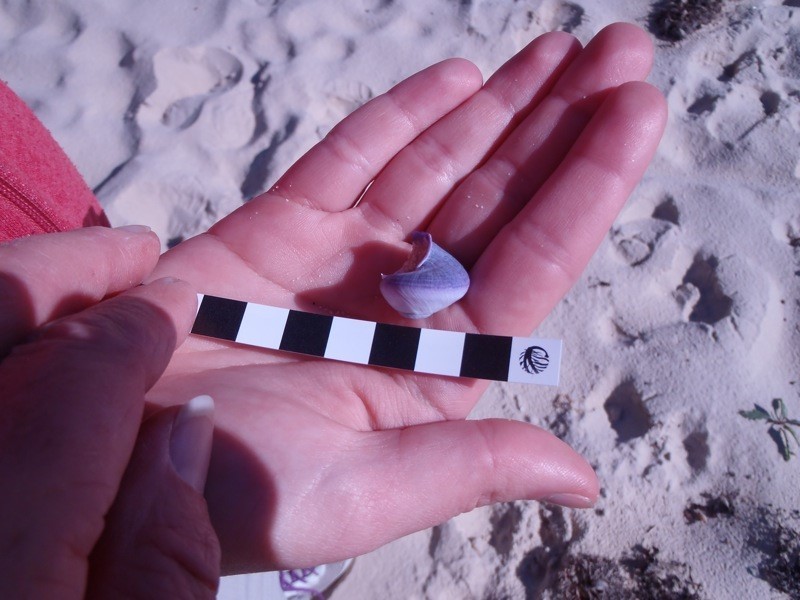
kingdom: Animalia
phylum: Mollusca
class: Gastropoda
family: Epitoniidae
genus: Janthina
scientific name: Janthina janthina
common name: Common janthina
